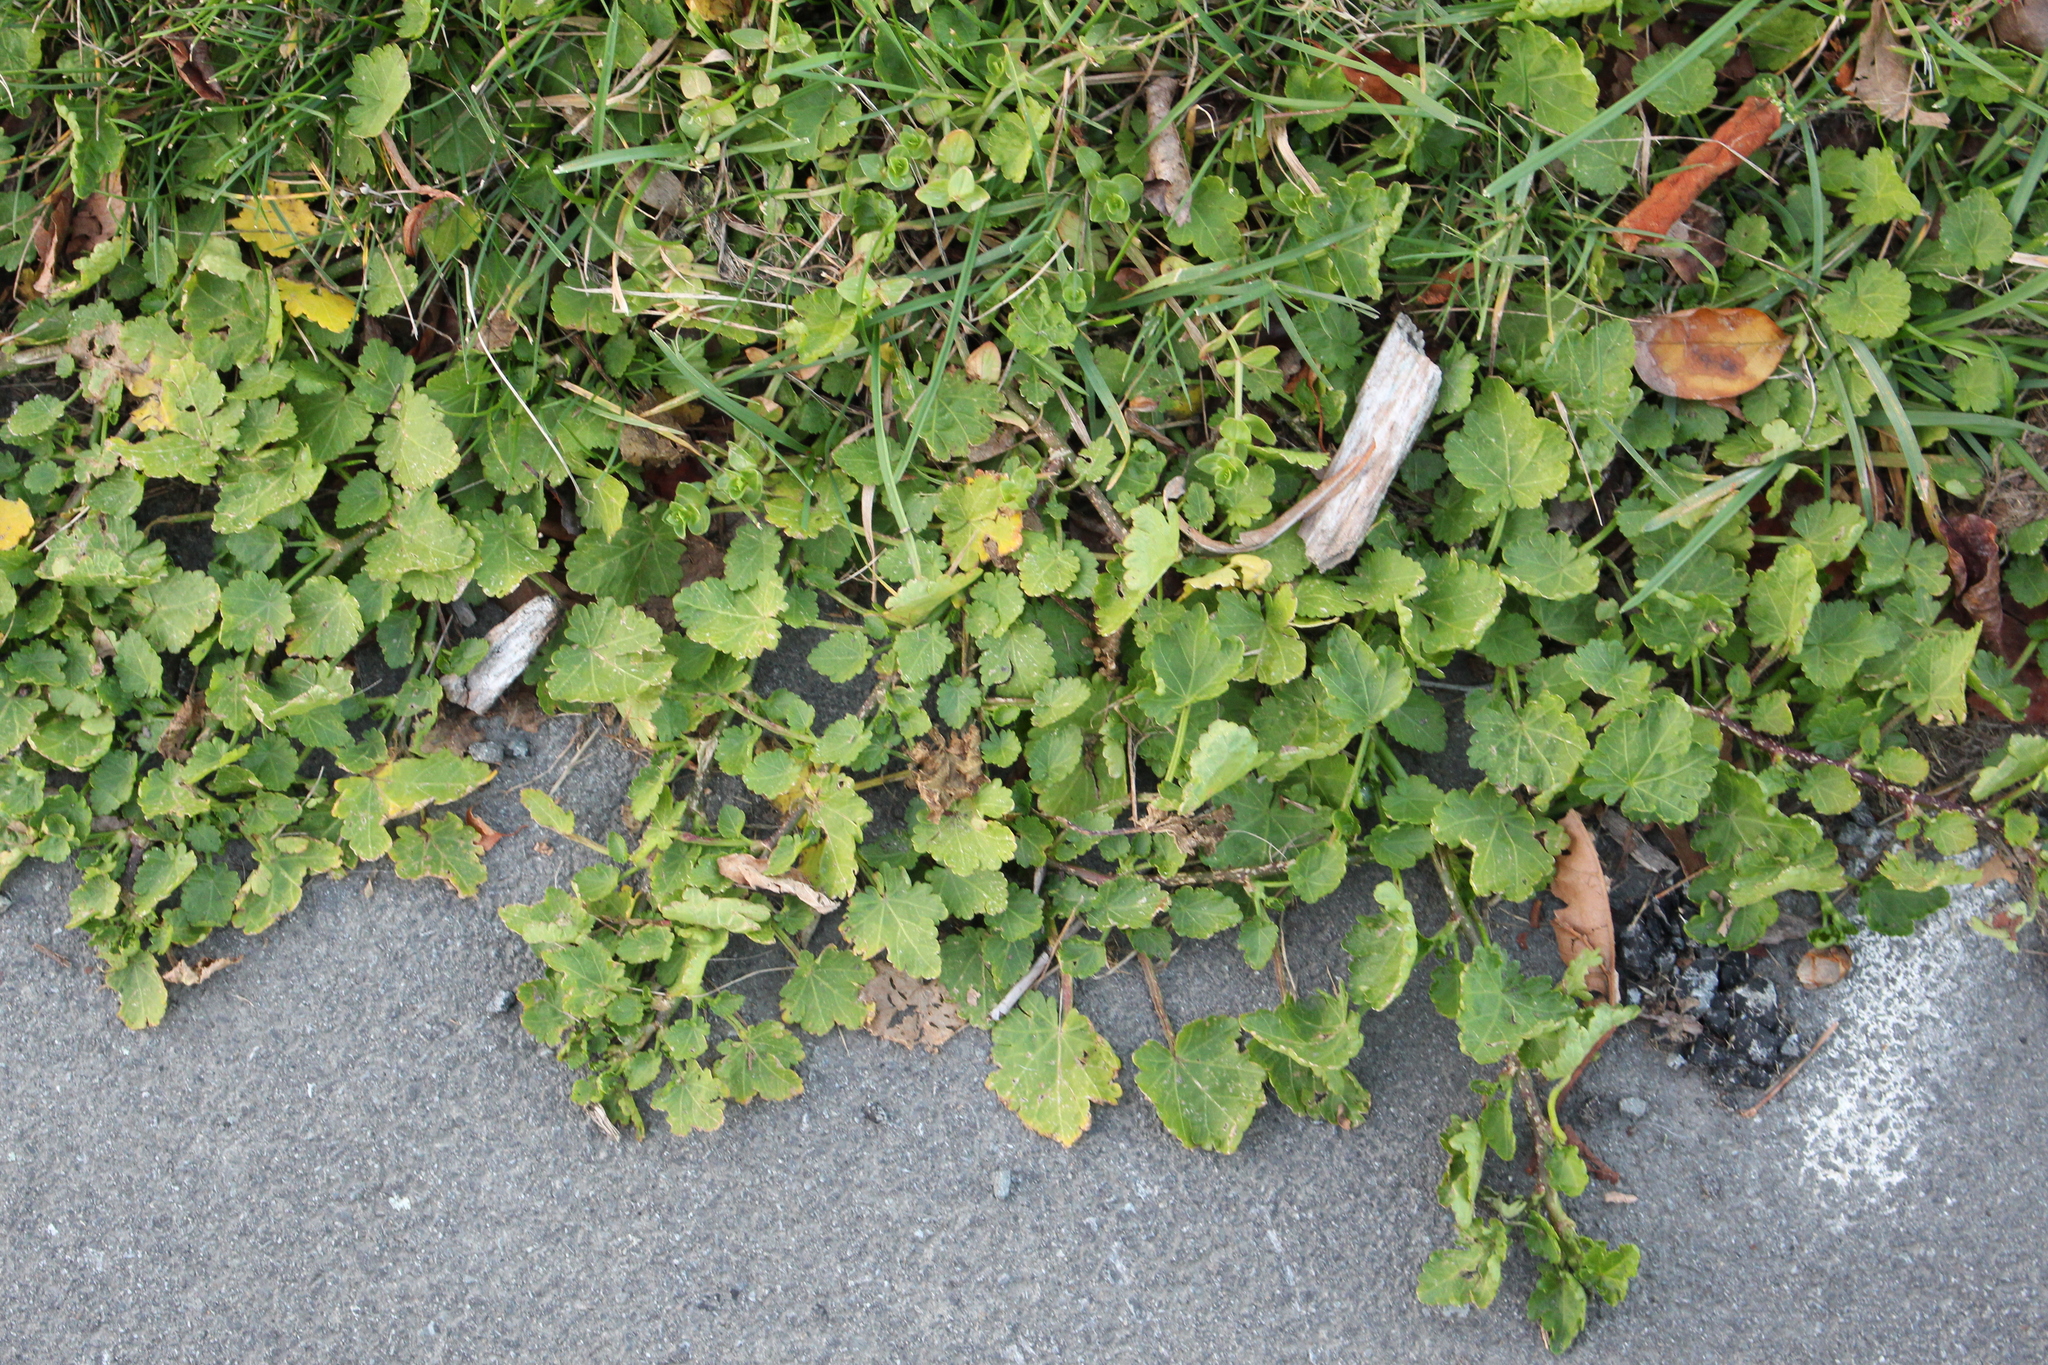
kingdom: Plantae
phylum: Tracheophyta
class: Magnoliopsida
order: Malvales
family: Malvaceae
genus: Modiola
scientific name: Modiola caroliniana
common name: Carolina bristlemallow
